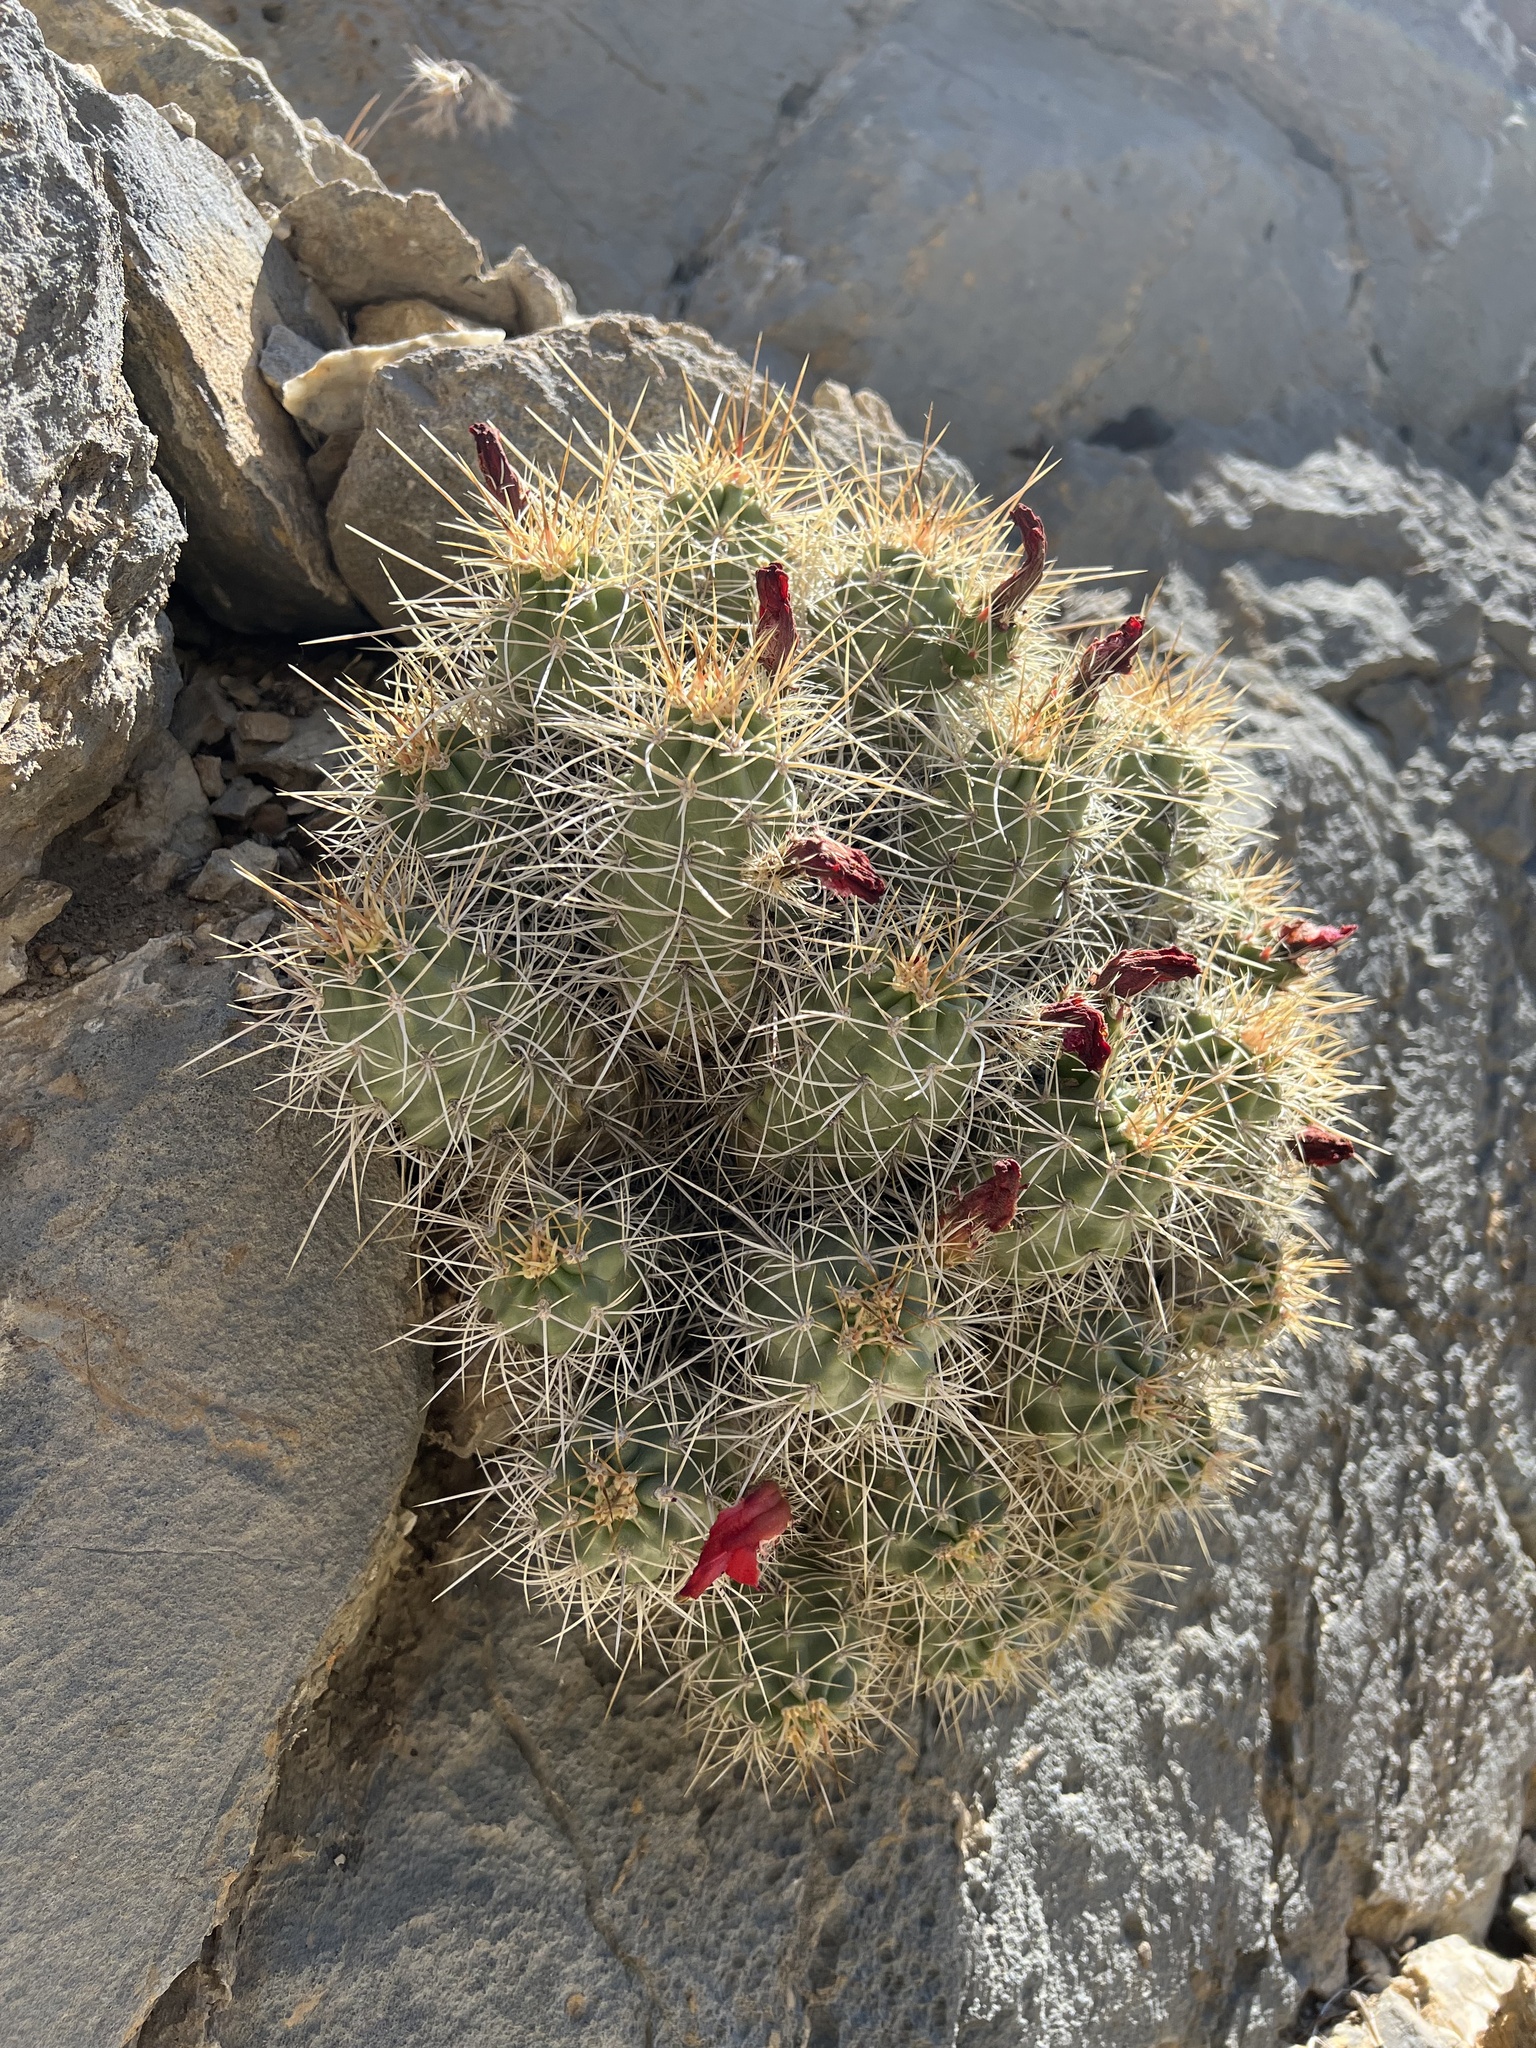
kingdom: Plantae
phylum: Tracheophyta
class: Magnoliopsida
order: Caryophyllales
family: Cactaceae
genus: Echinocereus
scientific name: Echinocereus triglochidiatus
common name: Claretcup hedgehog
